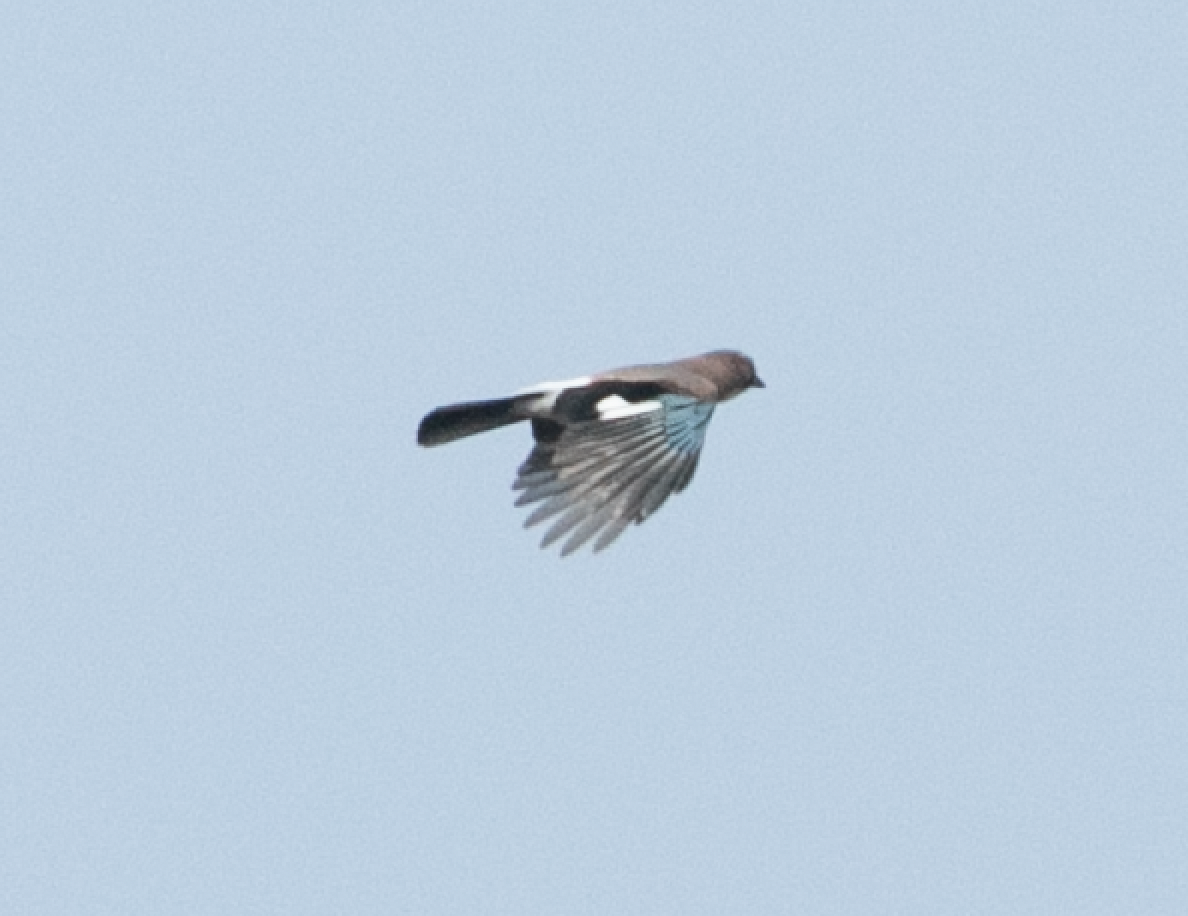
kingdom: Animalia
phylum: Chordata
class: Aves
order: Passeriformes
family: Corvidae
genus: Garrulus
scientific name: Garrulus glandarius
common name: Eurasian jay
